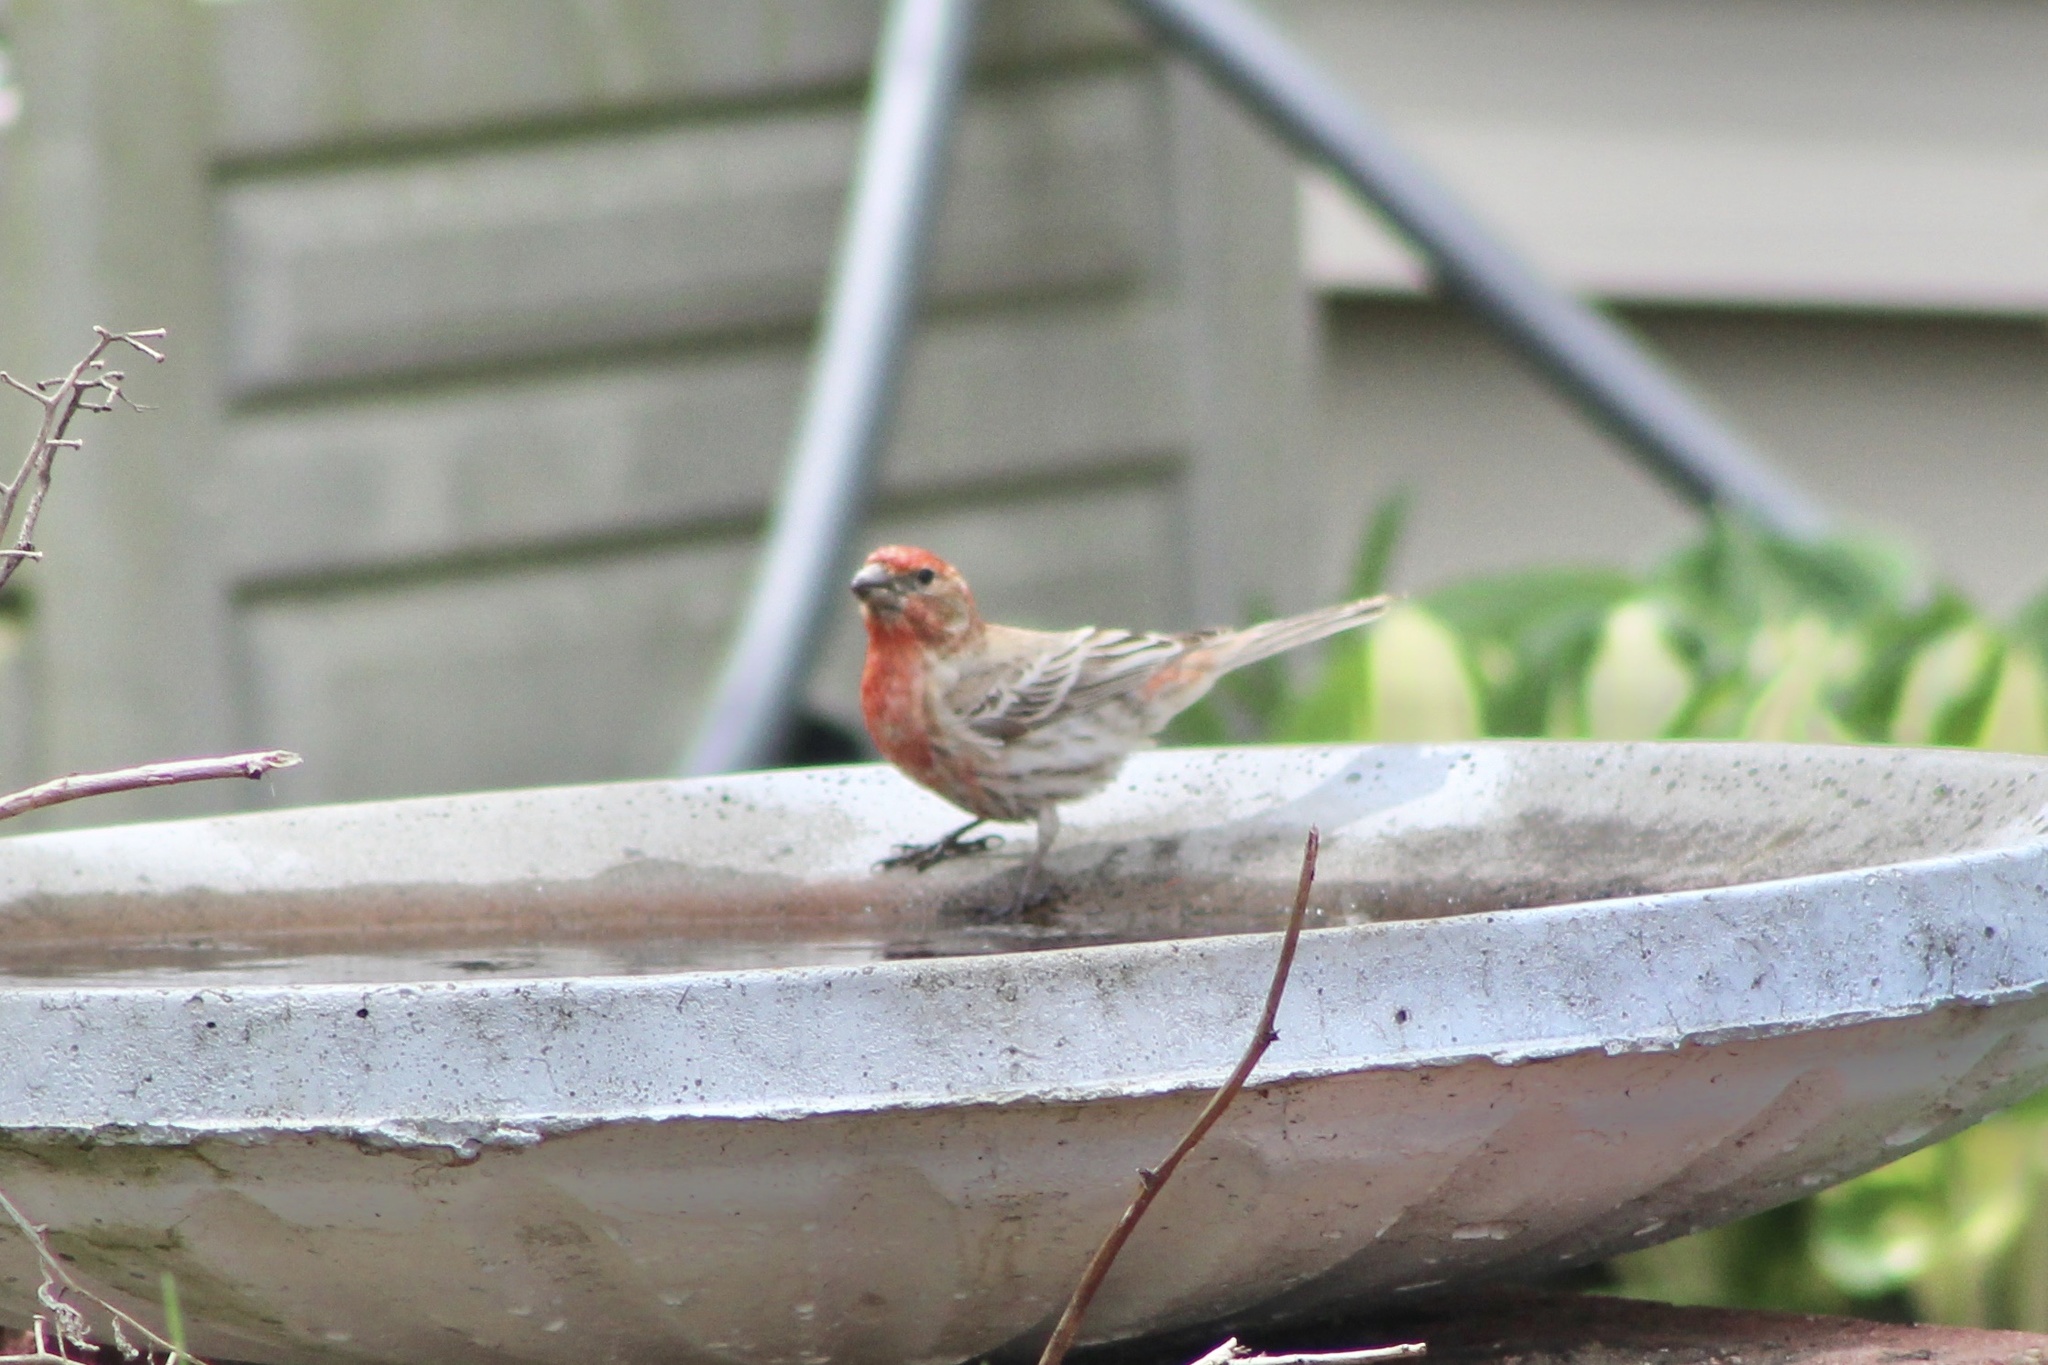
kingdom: Animalia
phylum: Chordata
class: Aves
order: Passeriformes
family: Fringillidae
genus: Haemorhous
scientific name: Haemorhous mexicanus
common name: House finch
